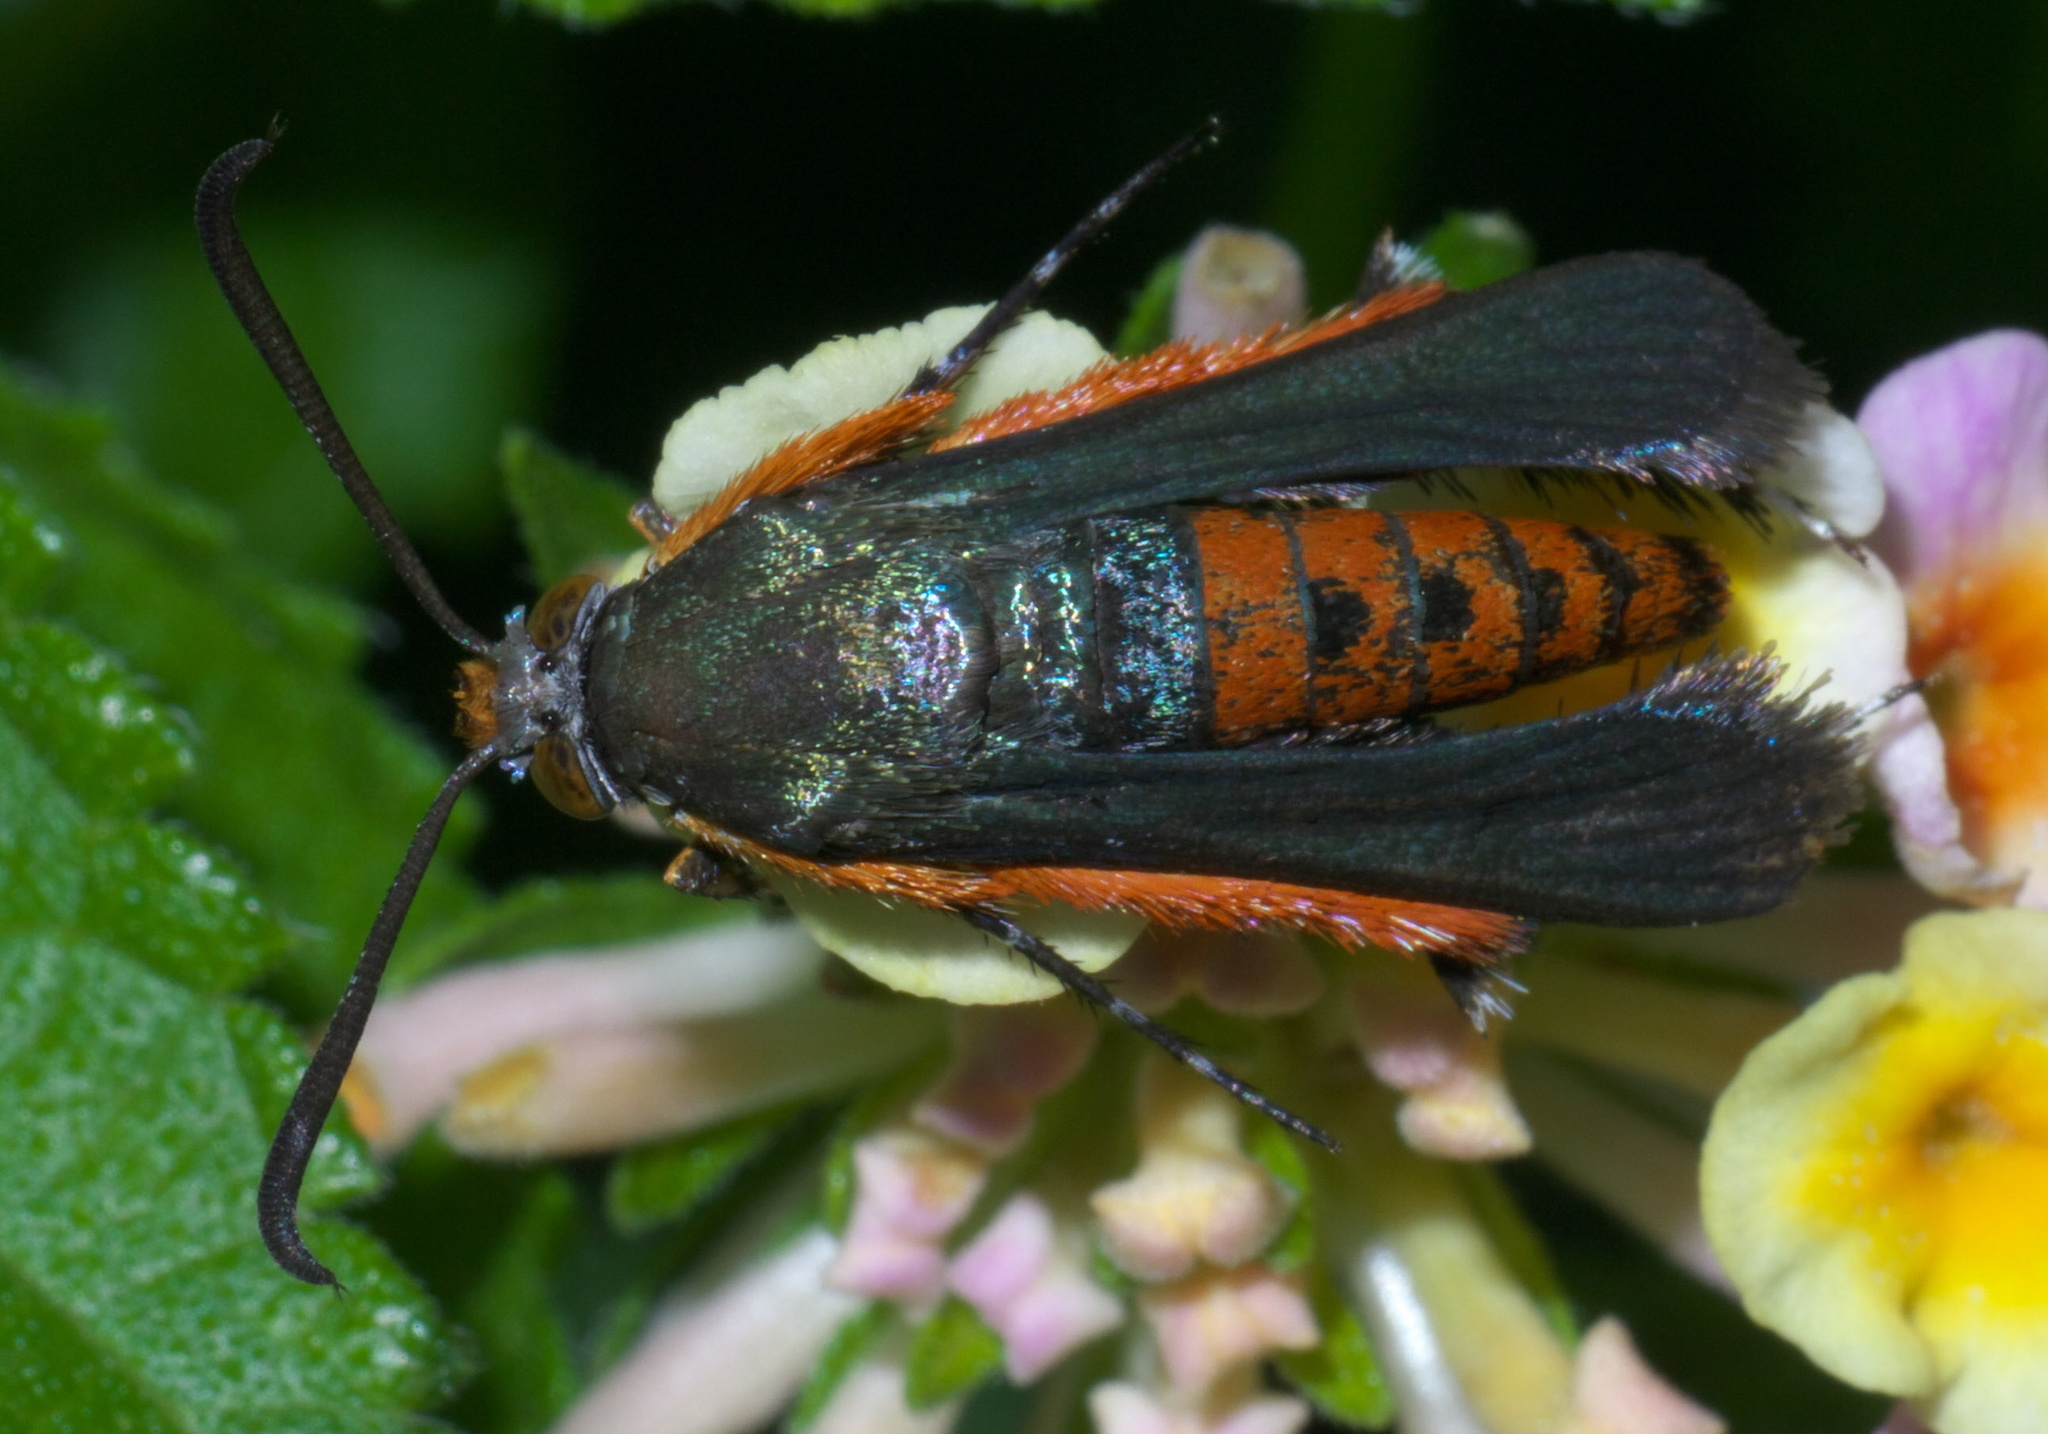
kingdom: Animalia
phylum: Arthropoda
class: Insecta
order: Lepidoptera
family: Sesiidae
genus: Eichlinia
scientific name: Eichlinia cucurbitae
